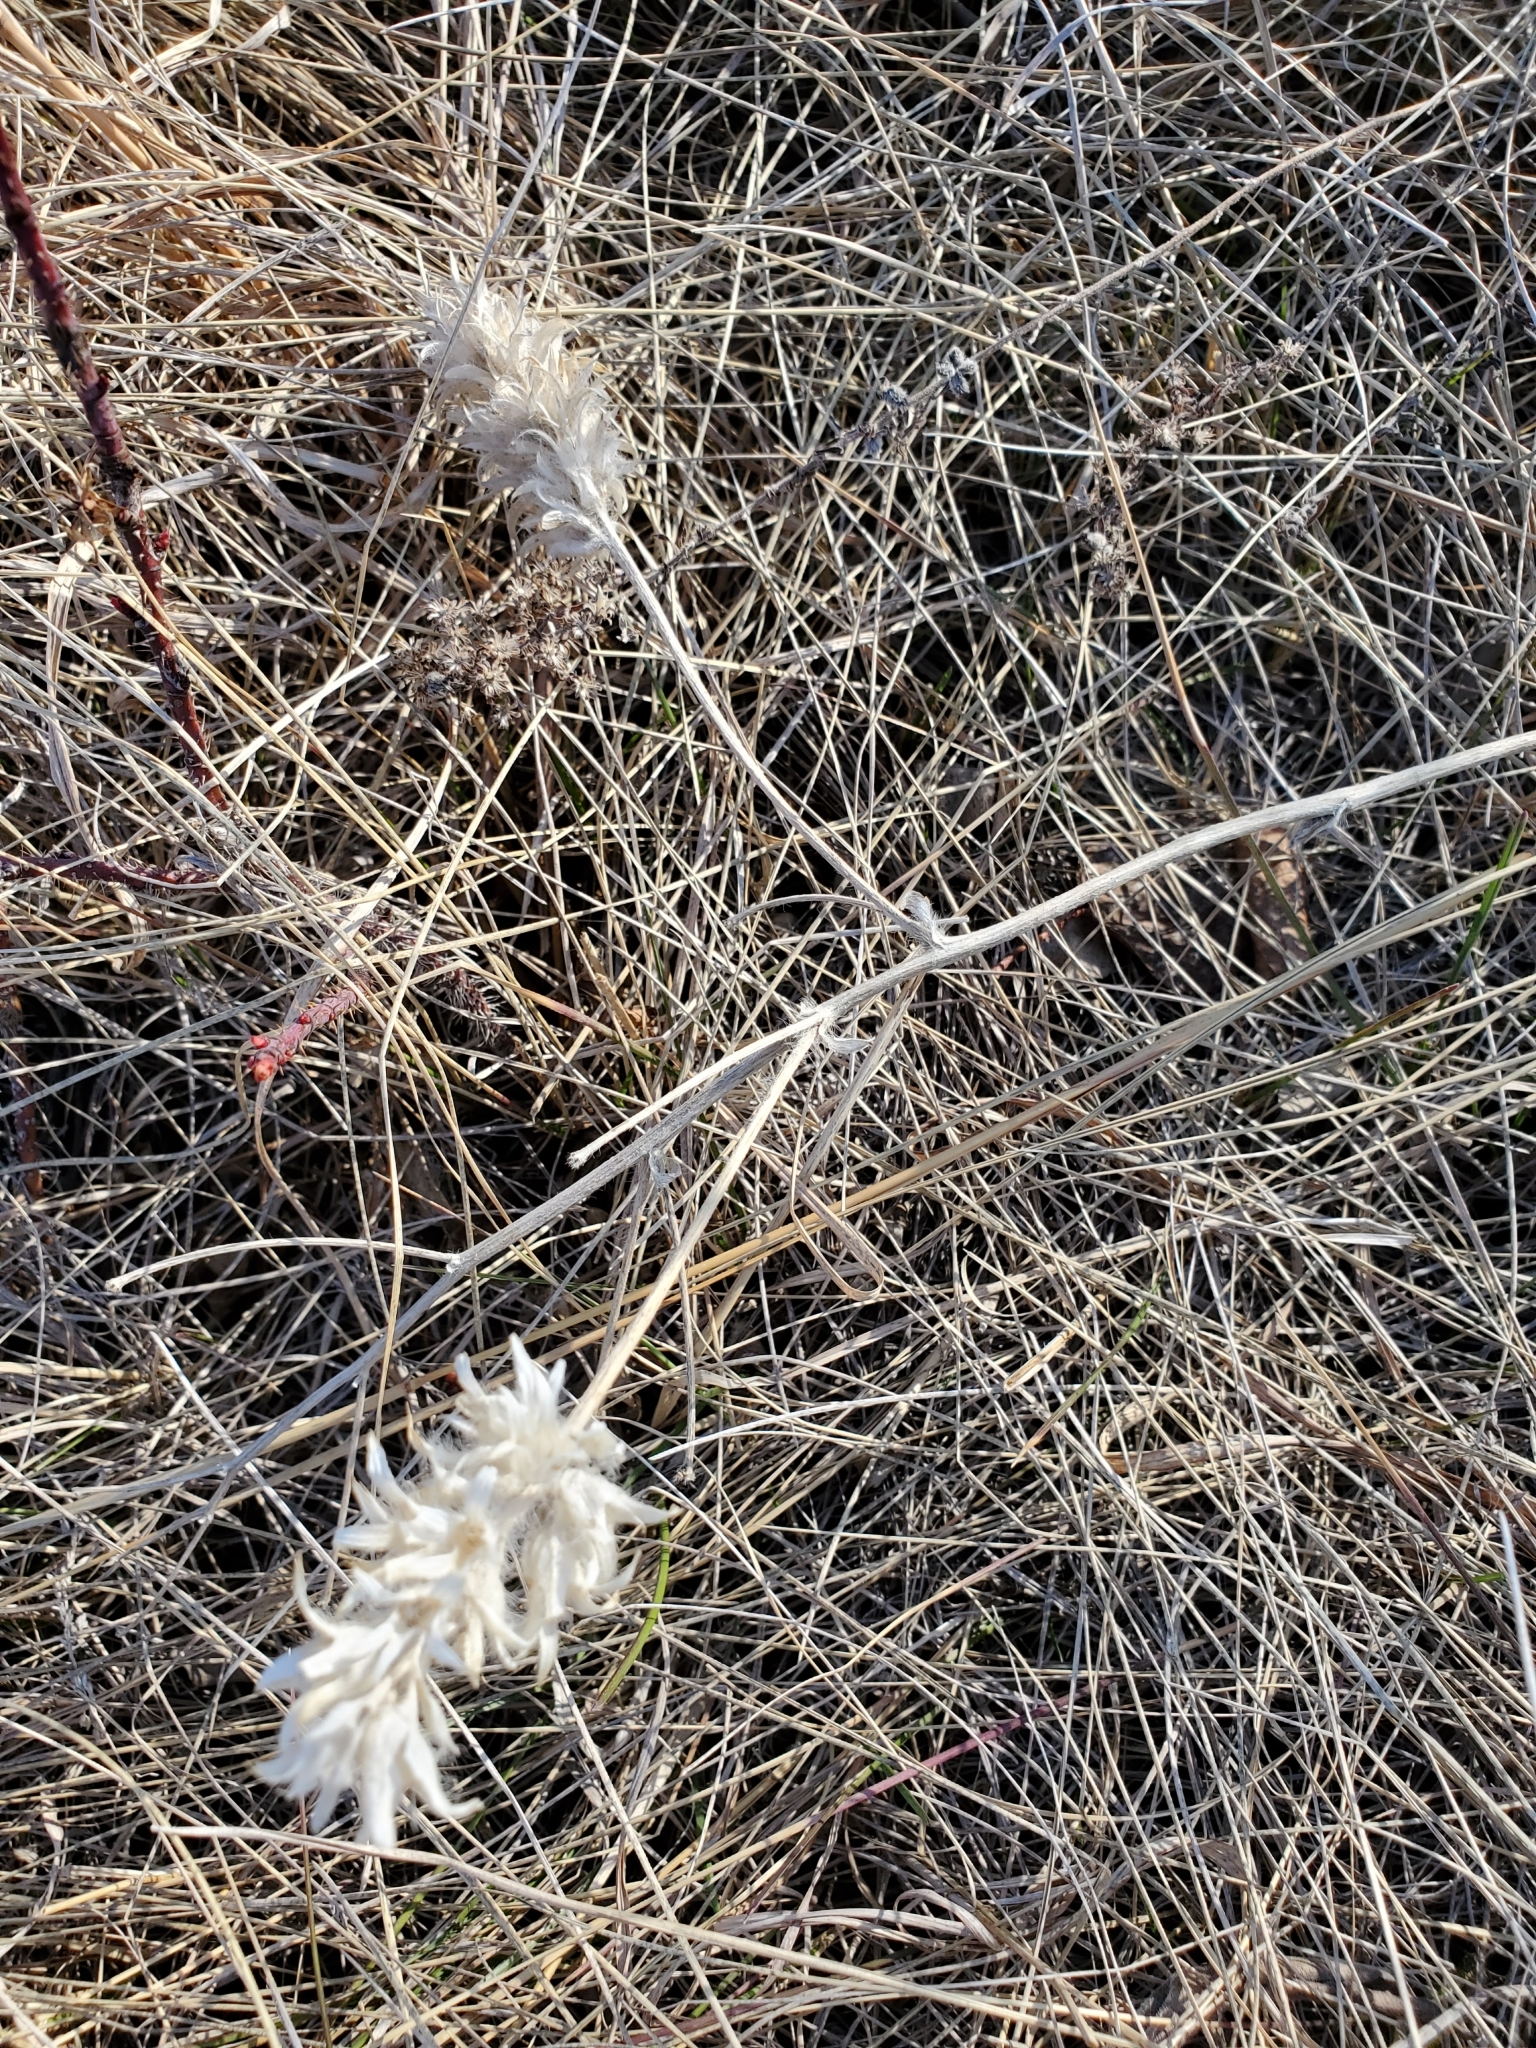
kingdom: Plantae
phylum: Tracheophyta
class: Magnoliopsida
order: Fabales
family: Fabaceae
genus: Pediomelum
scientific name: Pediomelum esculentum
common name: Indian-turnip
